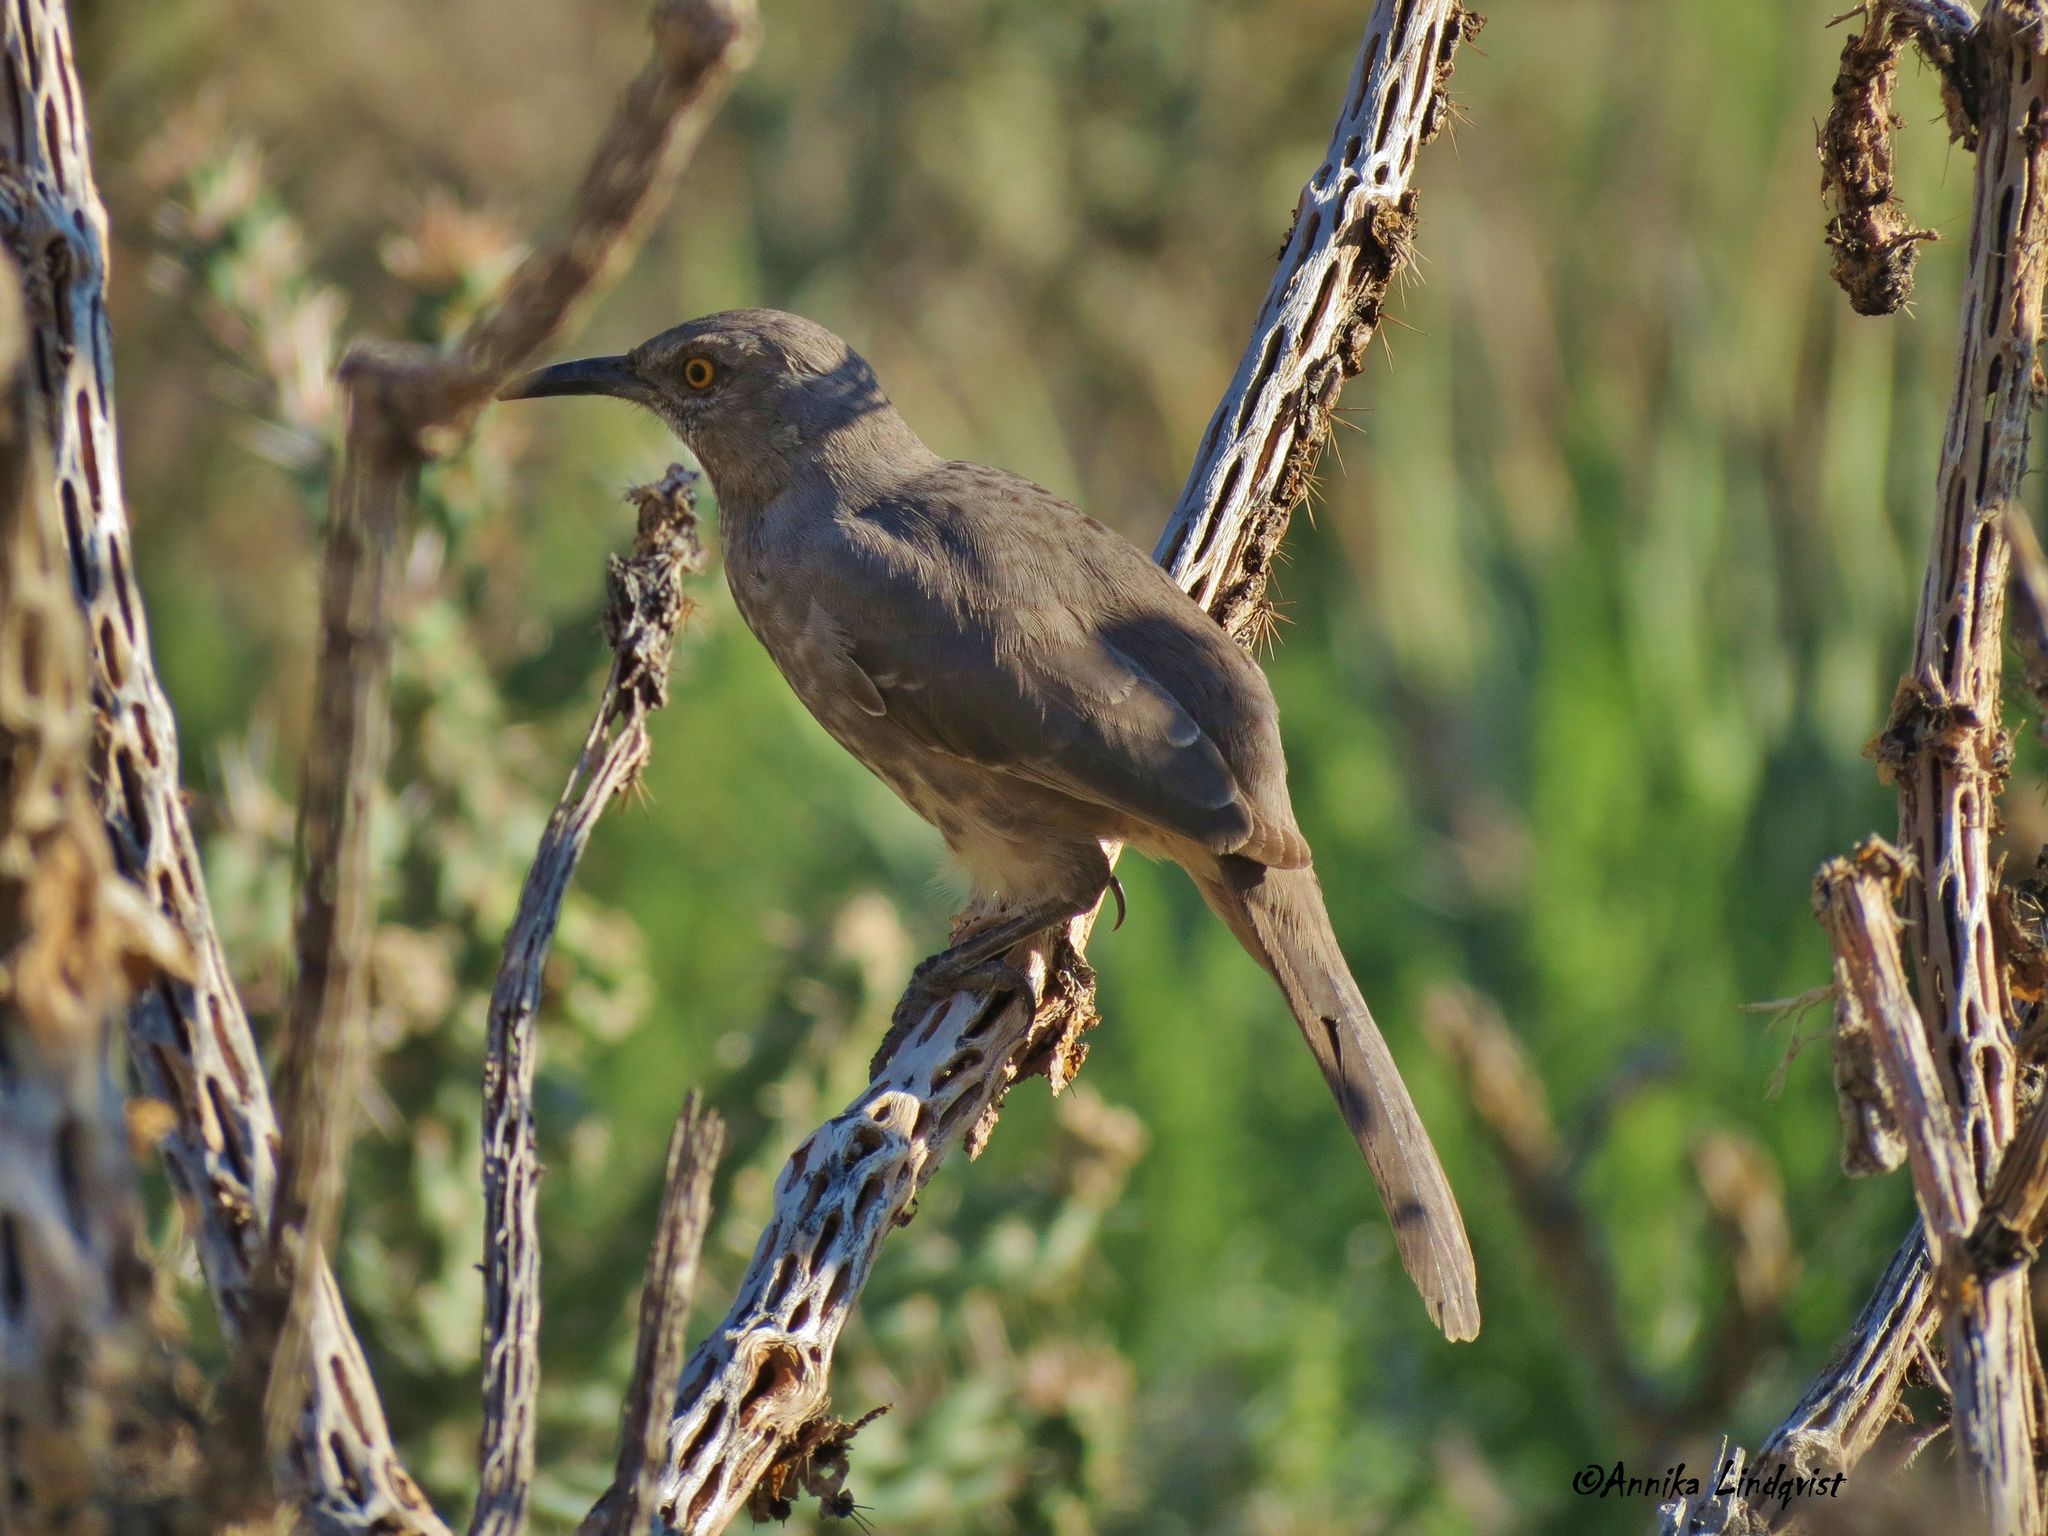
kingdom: Animalia
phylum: Chordata
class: Aves
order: Passeriformes
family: Mimidae
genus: Toxostoma
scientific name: Toxostoma curvirostre
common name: Curve-billed thrasher
